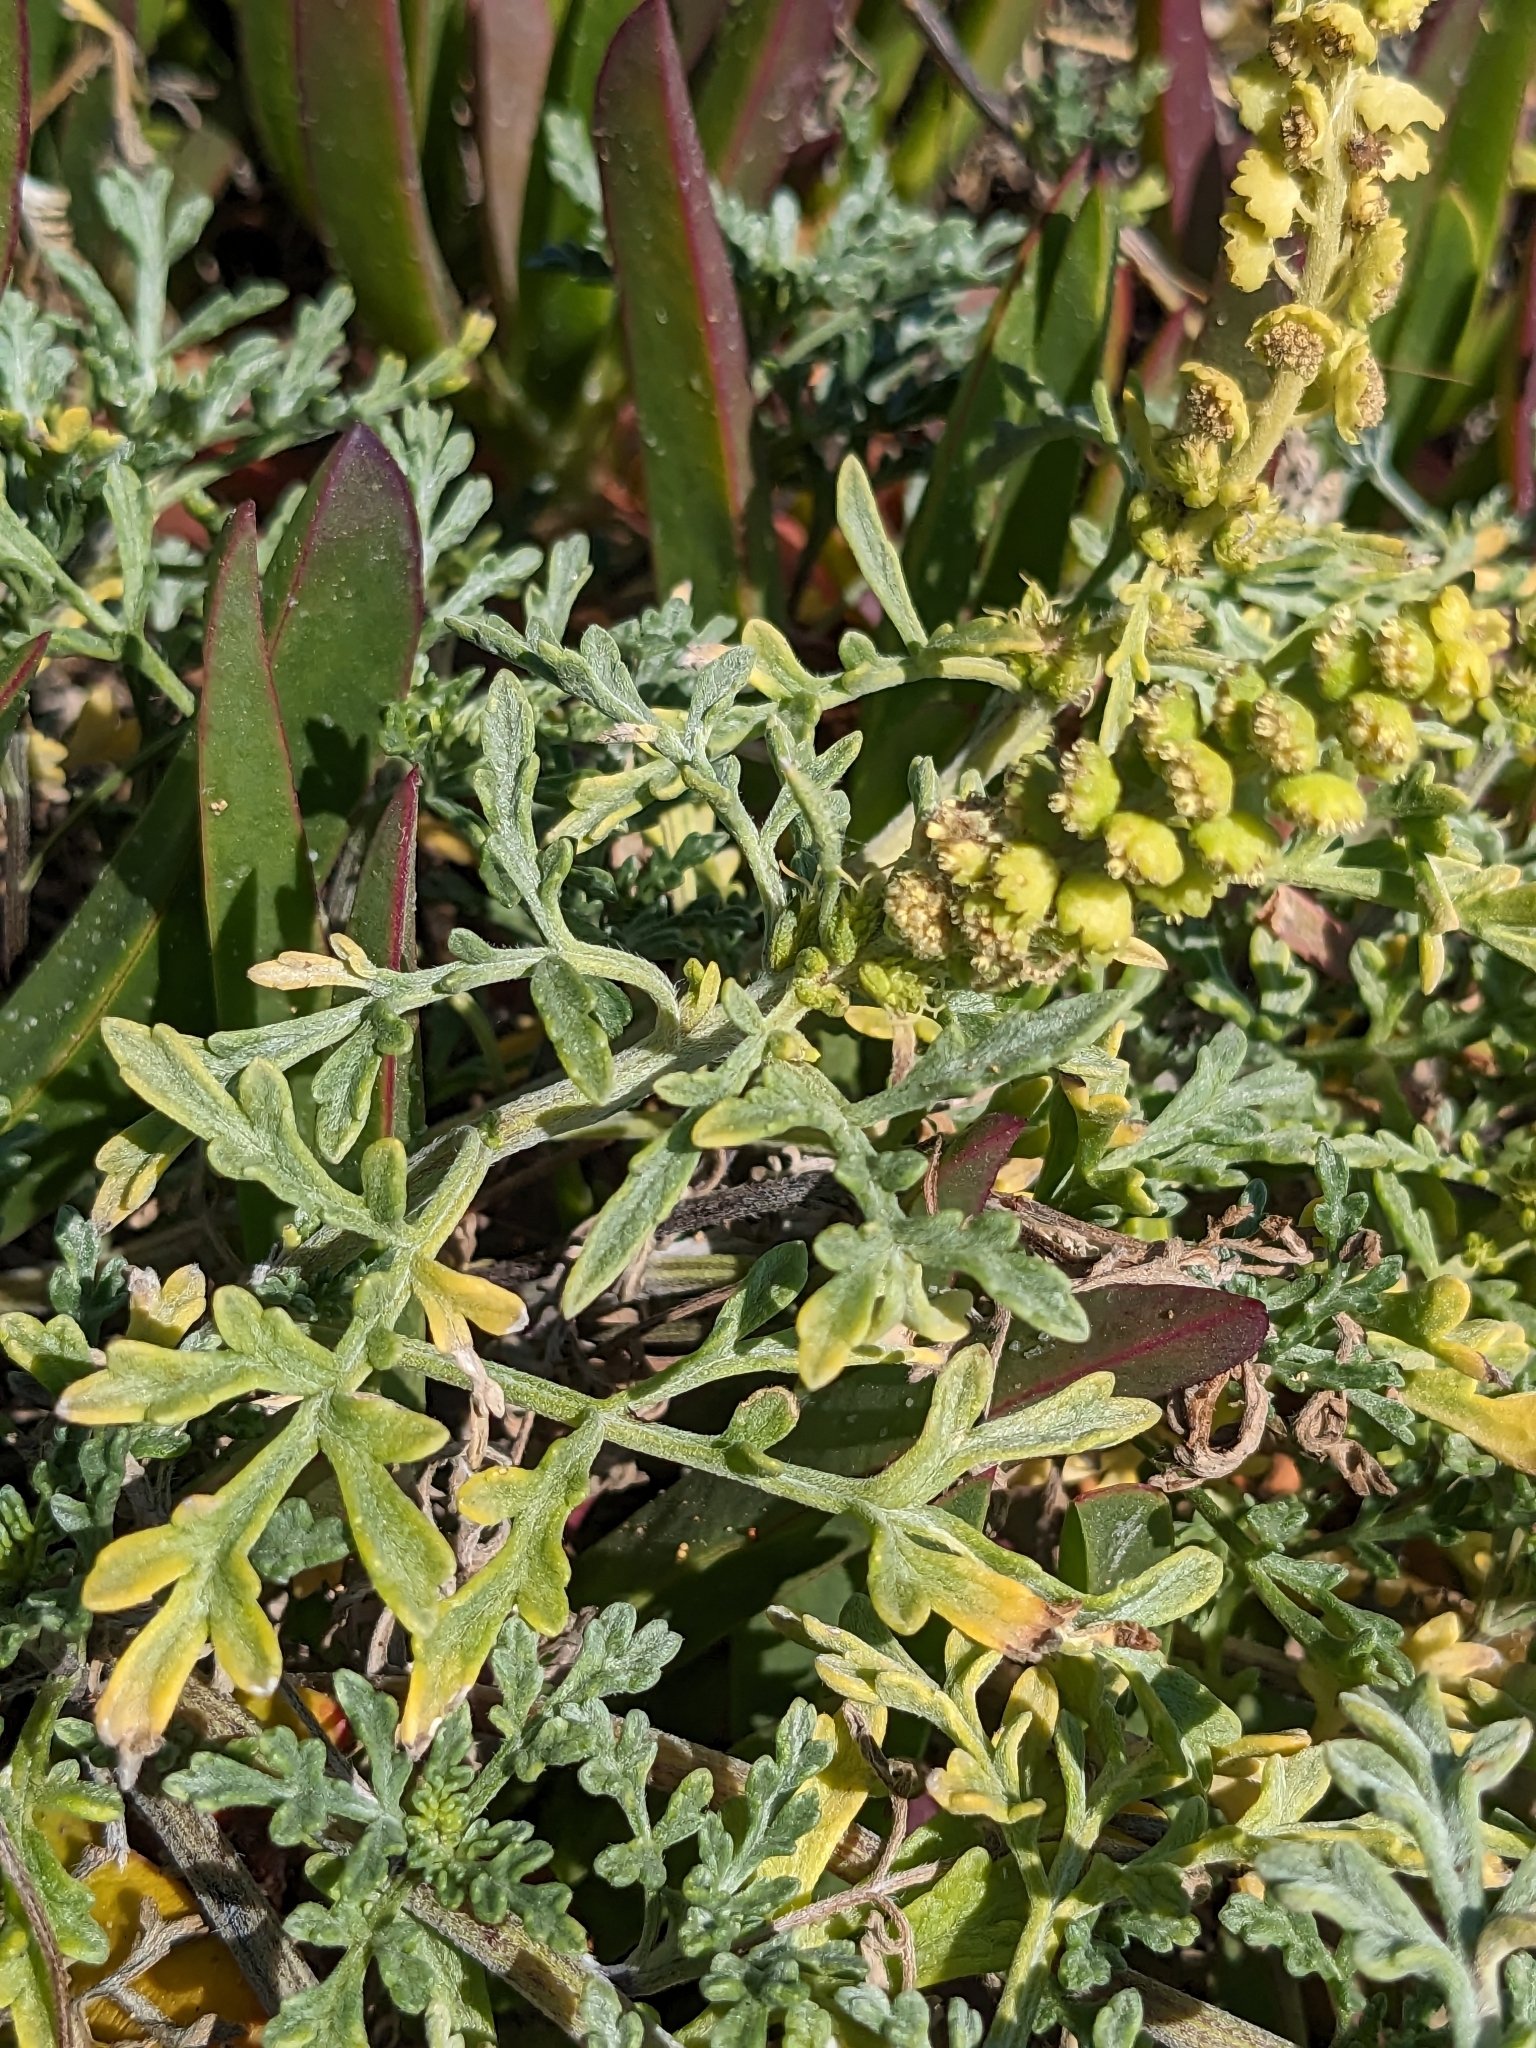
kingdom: Plantae
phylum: Tracheophyta
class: Magnoliopsida
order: Asterales
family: Asteraceae
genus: Ambrosia
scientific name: Ambrosia chamissonis
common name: Beachbur
